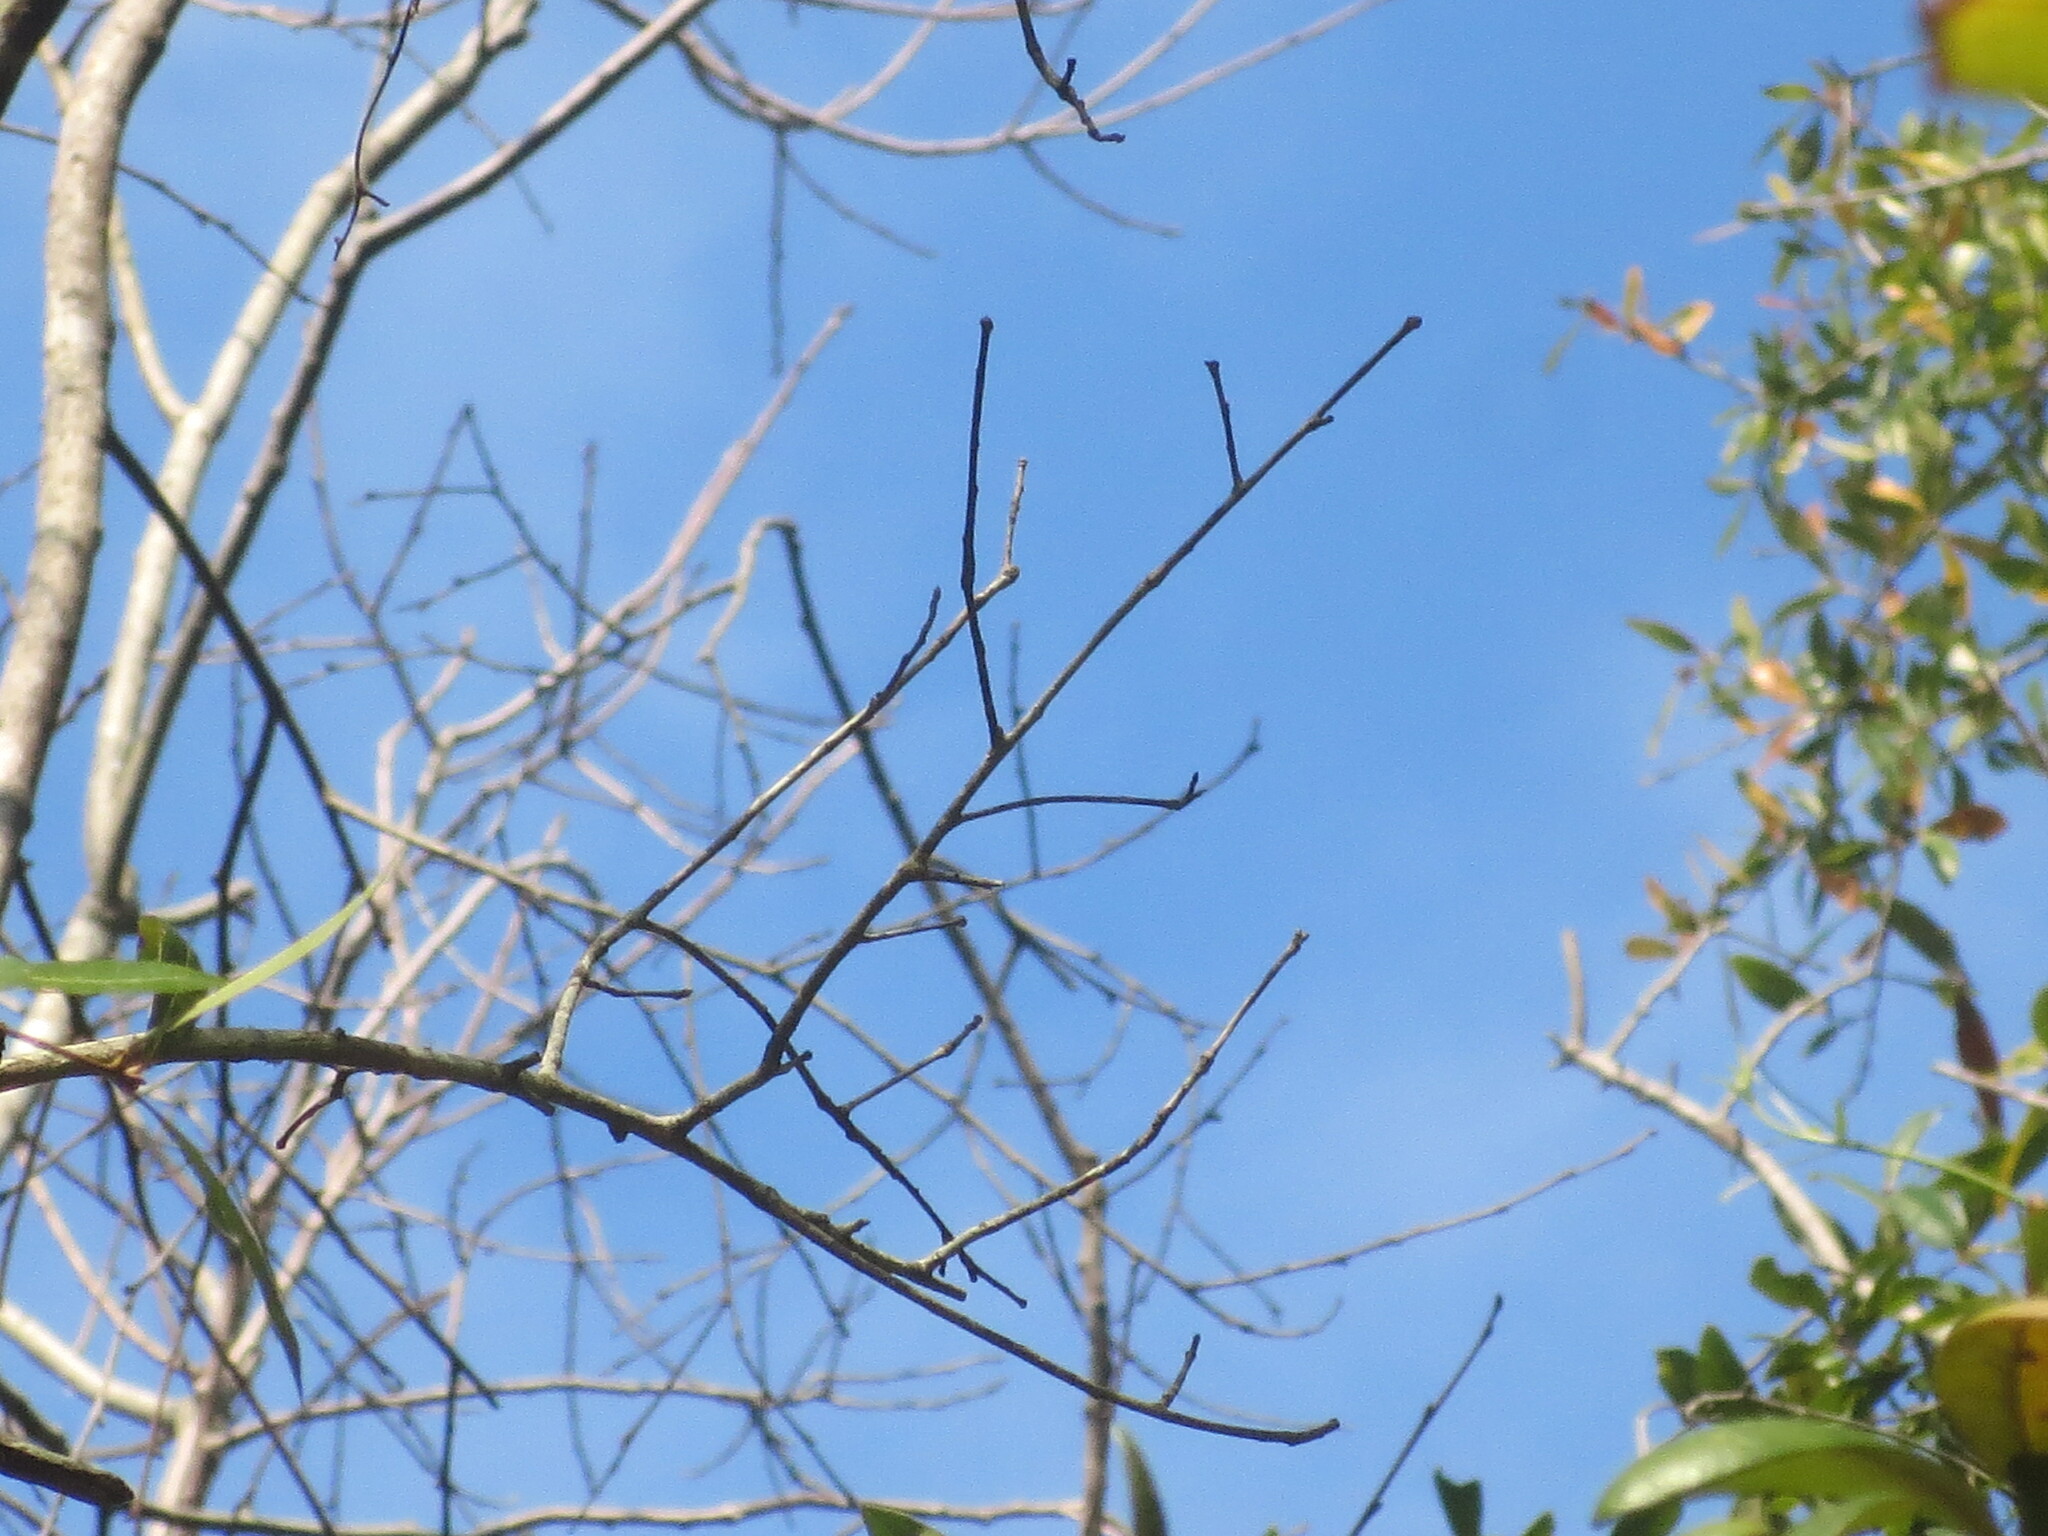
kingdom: Plantae
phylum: Tracheophyta
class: Magnoliopsida
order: Ericales
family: Ebenaceae
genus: Diospyros
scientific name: Diospyros virginiana
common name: Persimmon
